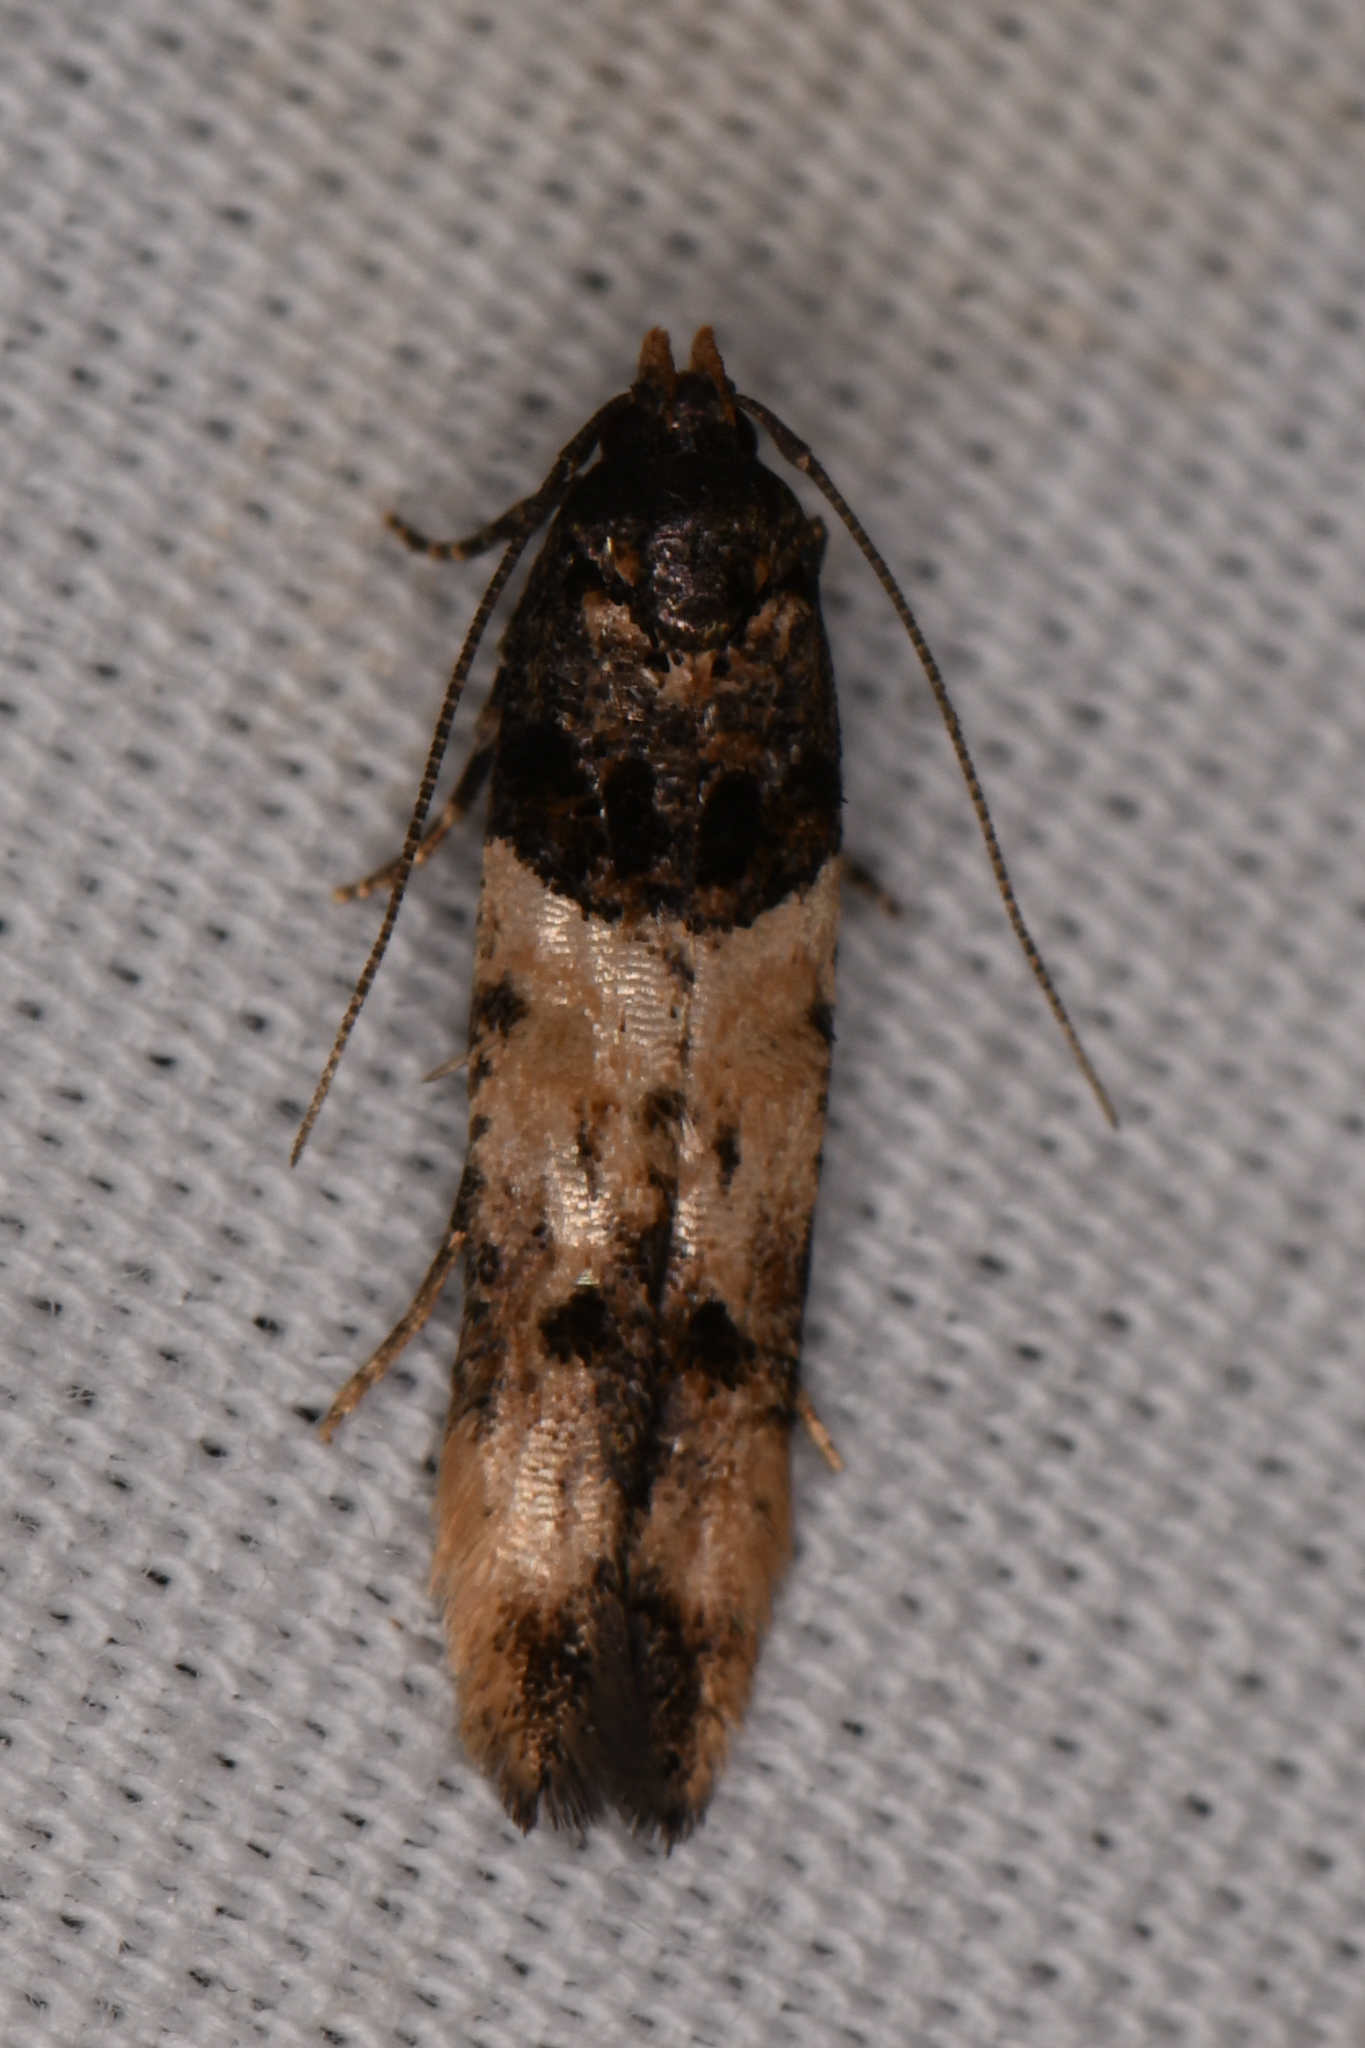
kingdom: Animalia
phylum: Arthropoda
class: Insecta
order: Lepidoptera
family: Cosmopterigidae
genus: Walshia
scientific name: Walshia miscecolorella
